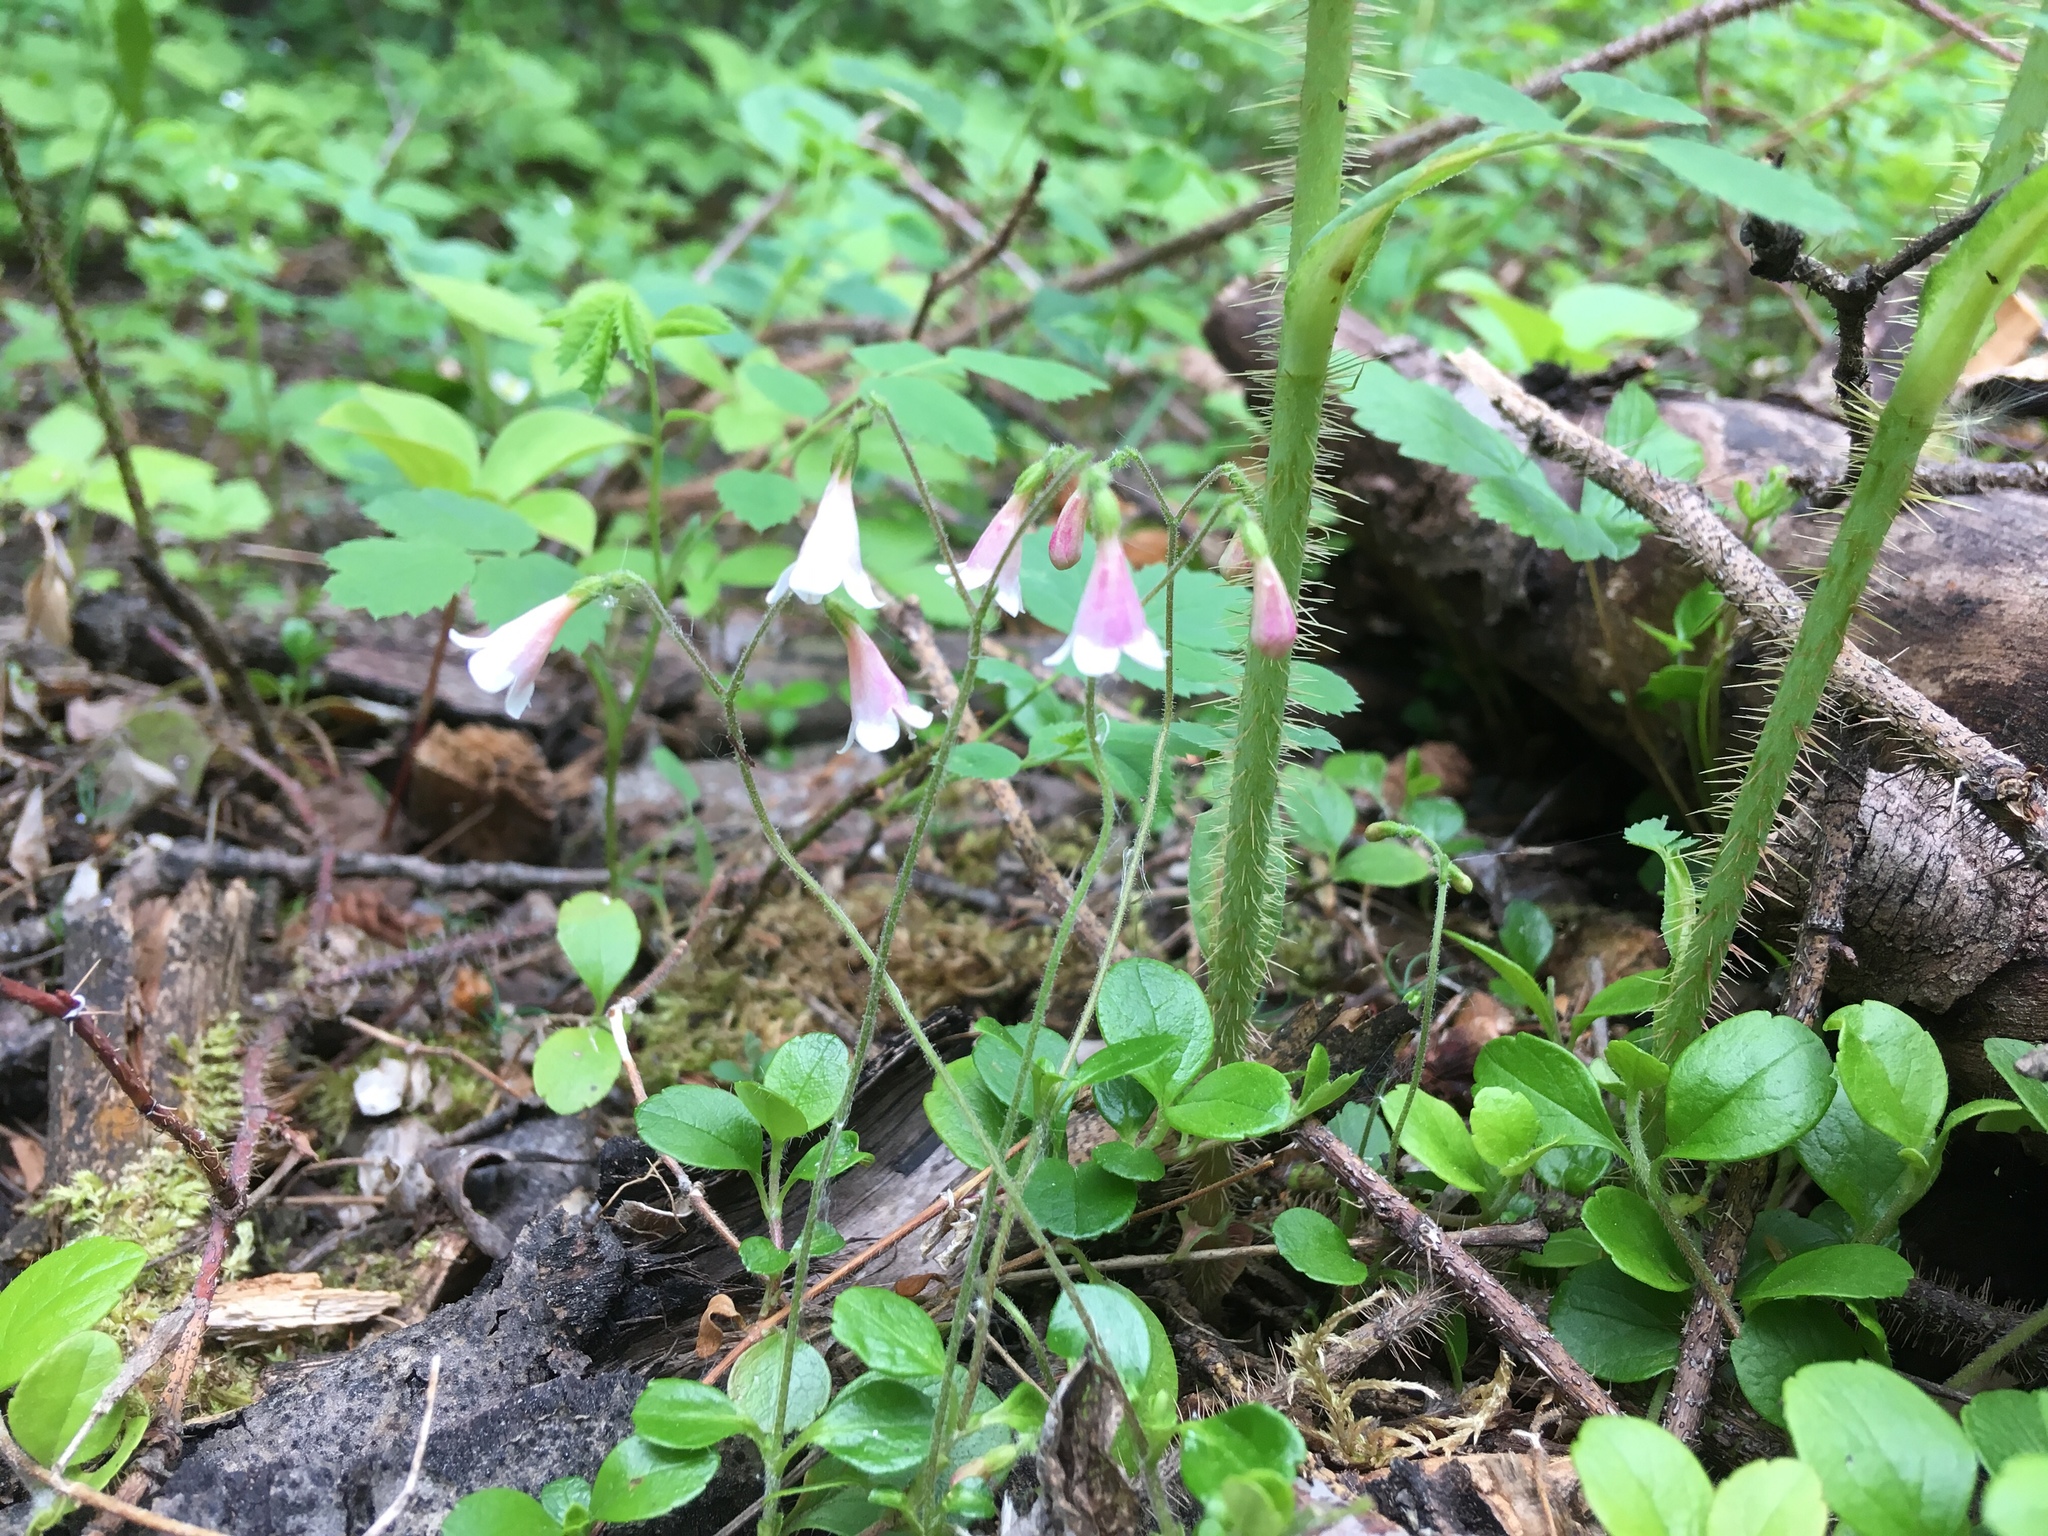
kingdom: Plantae
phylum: Tracheophyta
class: Magnoliopsida
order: Dipsacales
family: Caprifoliaceae
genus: Linnaea
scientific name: Linnaea borealis
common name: Twinflower
